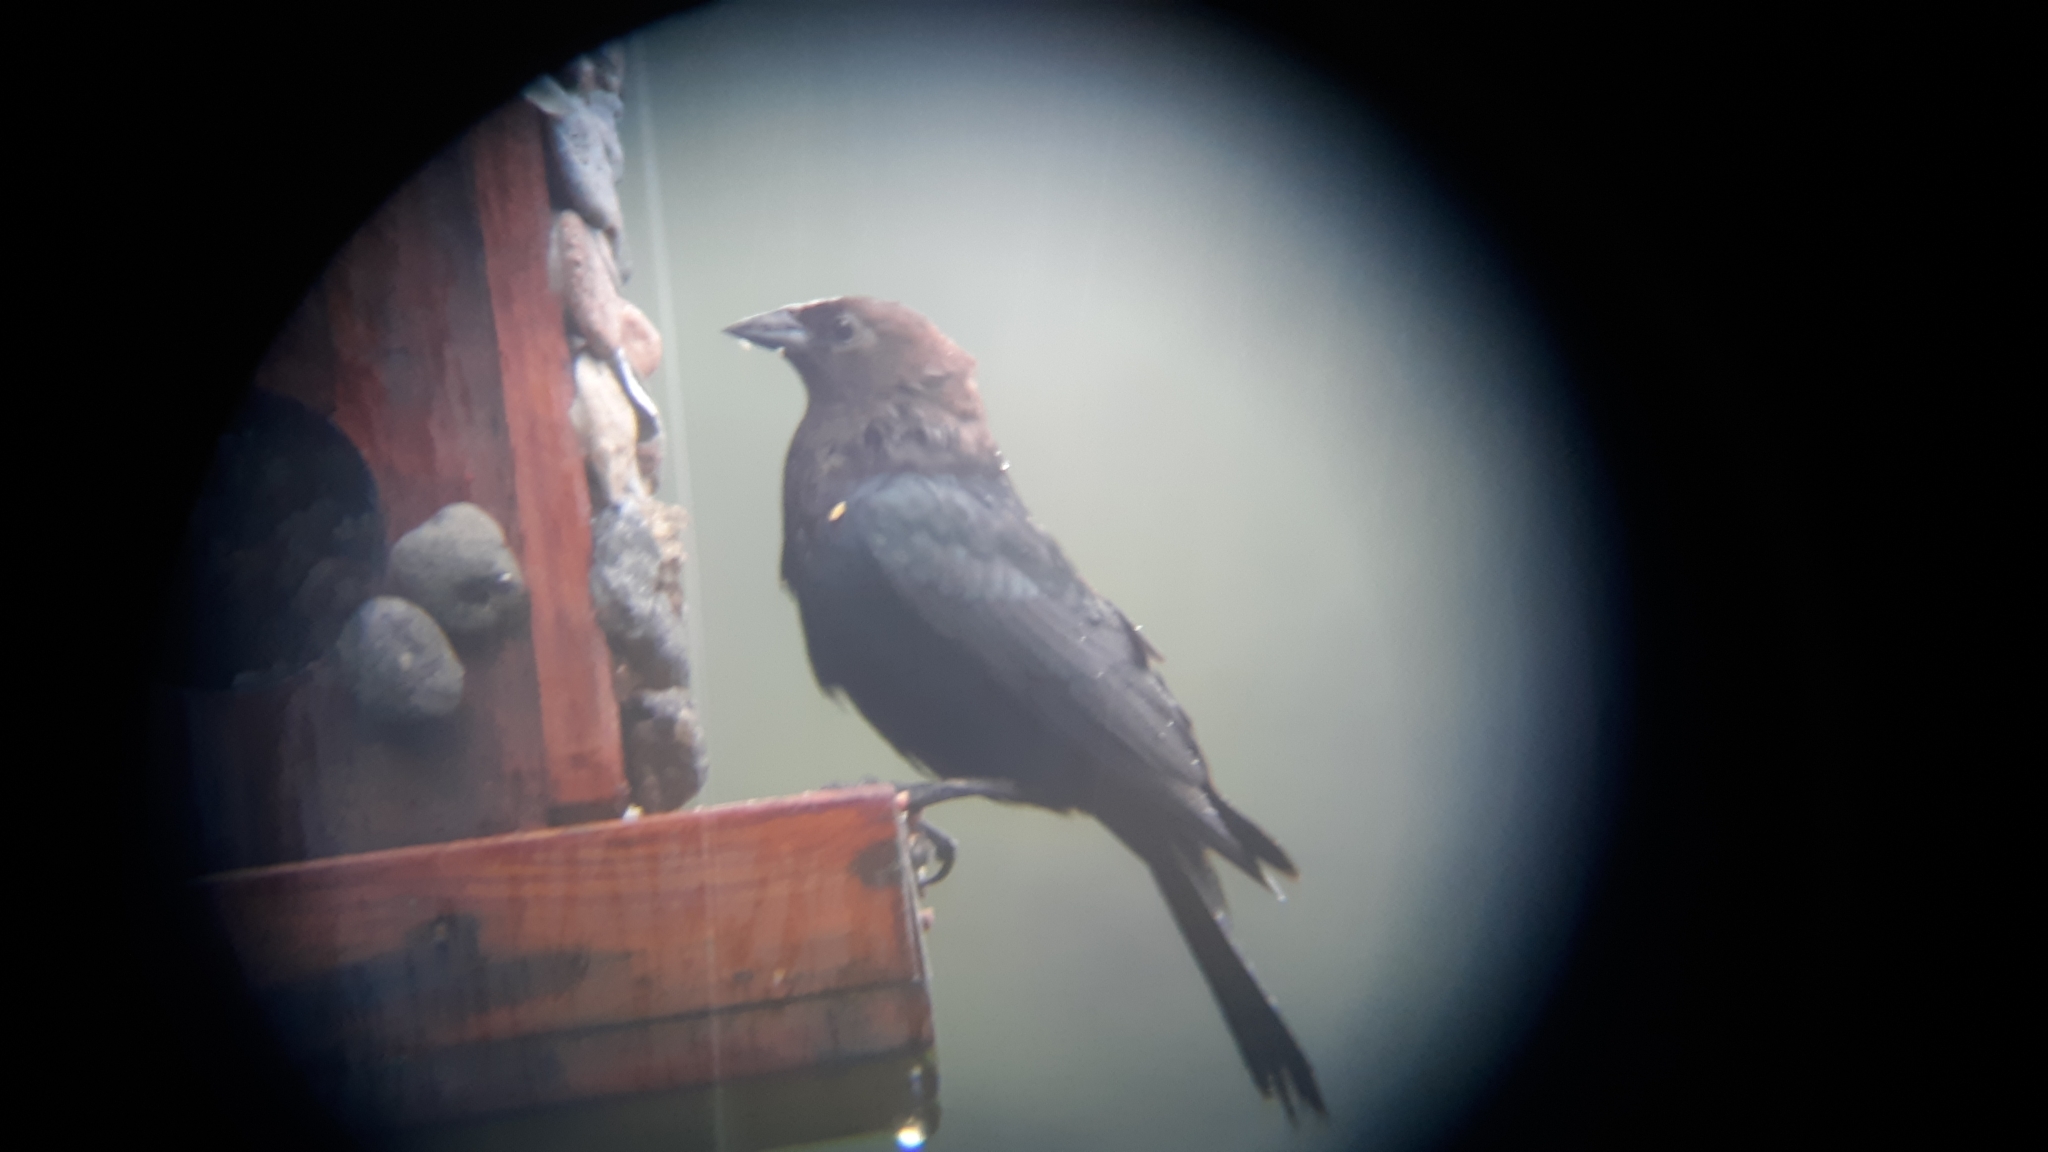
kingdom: Animalia
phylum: Chordata
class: Aves
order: Passeriformes
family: Icteridae
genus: Molothrus
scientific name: Molothrus ater
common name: Brown-headed cowbird
